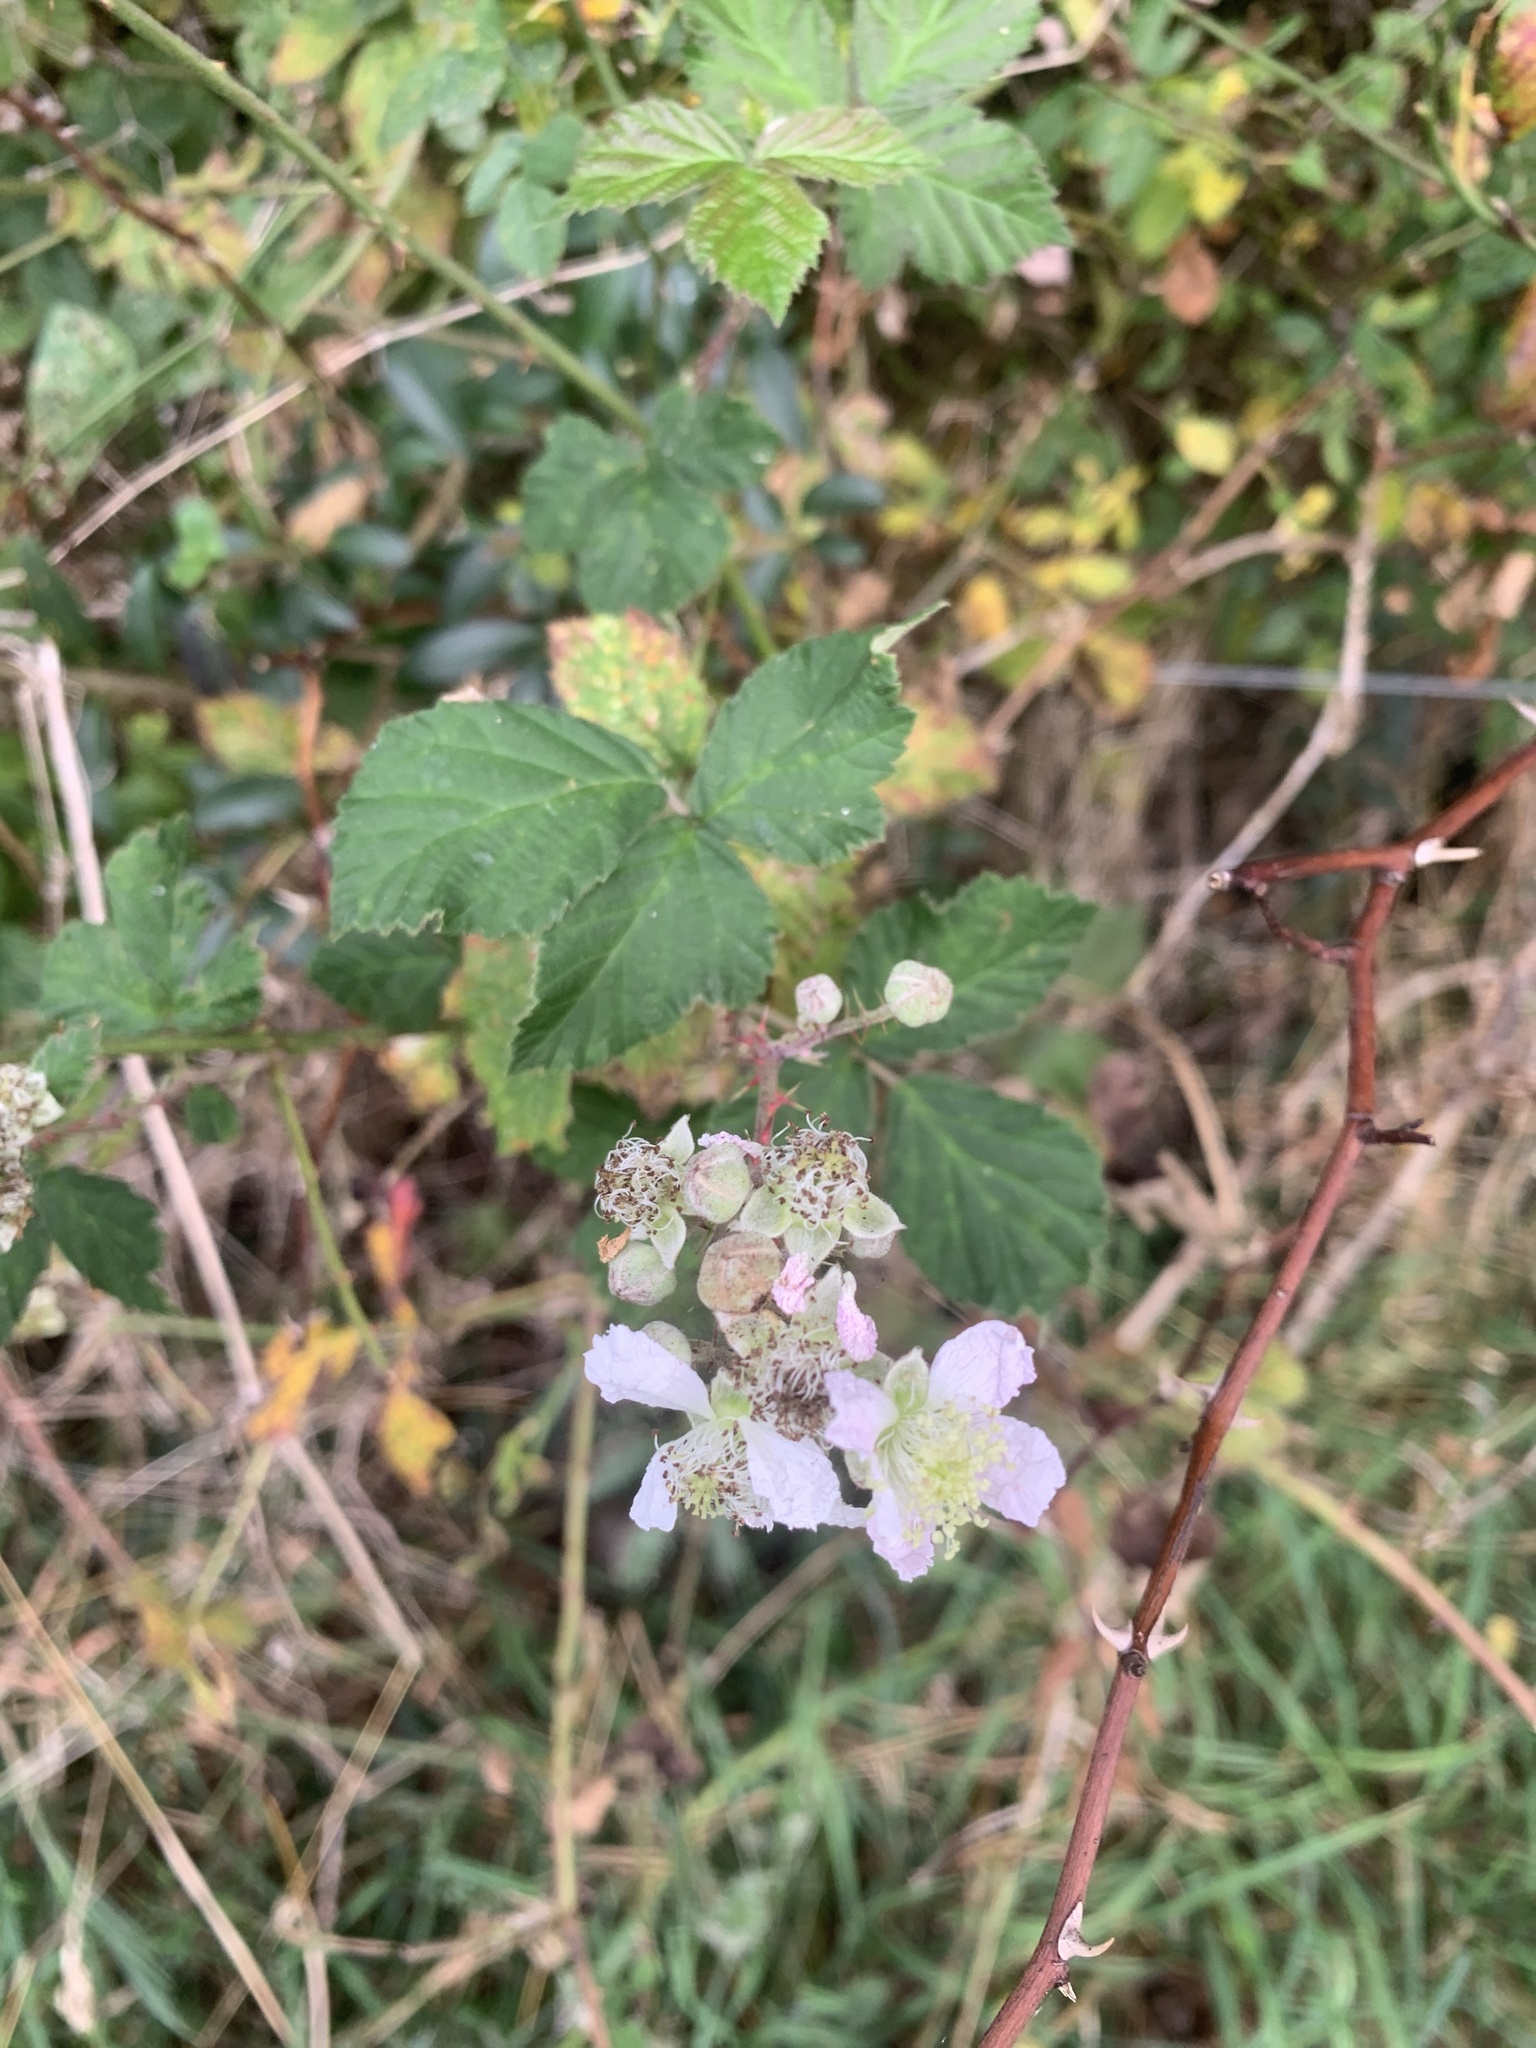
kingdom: Plantae
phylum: Tracheophyta
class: Magnoliopsida
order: Rosales
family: Rosaceae
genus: Rubus
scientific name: Rubus fruticosus
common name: Blackberry, bramble
